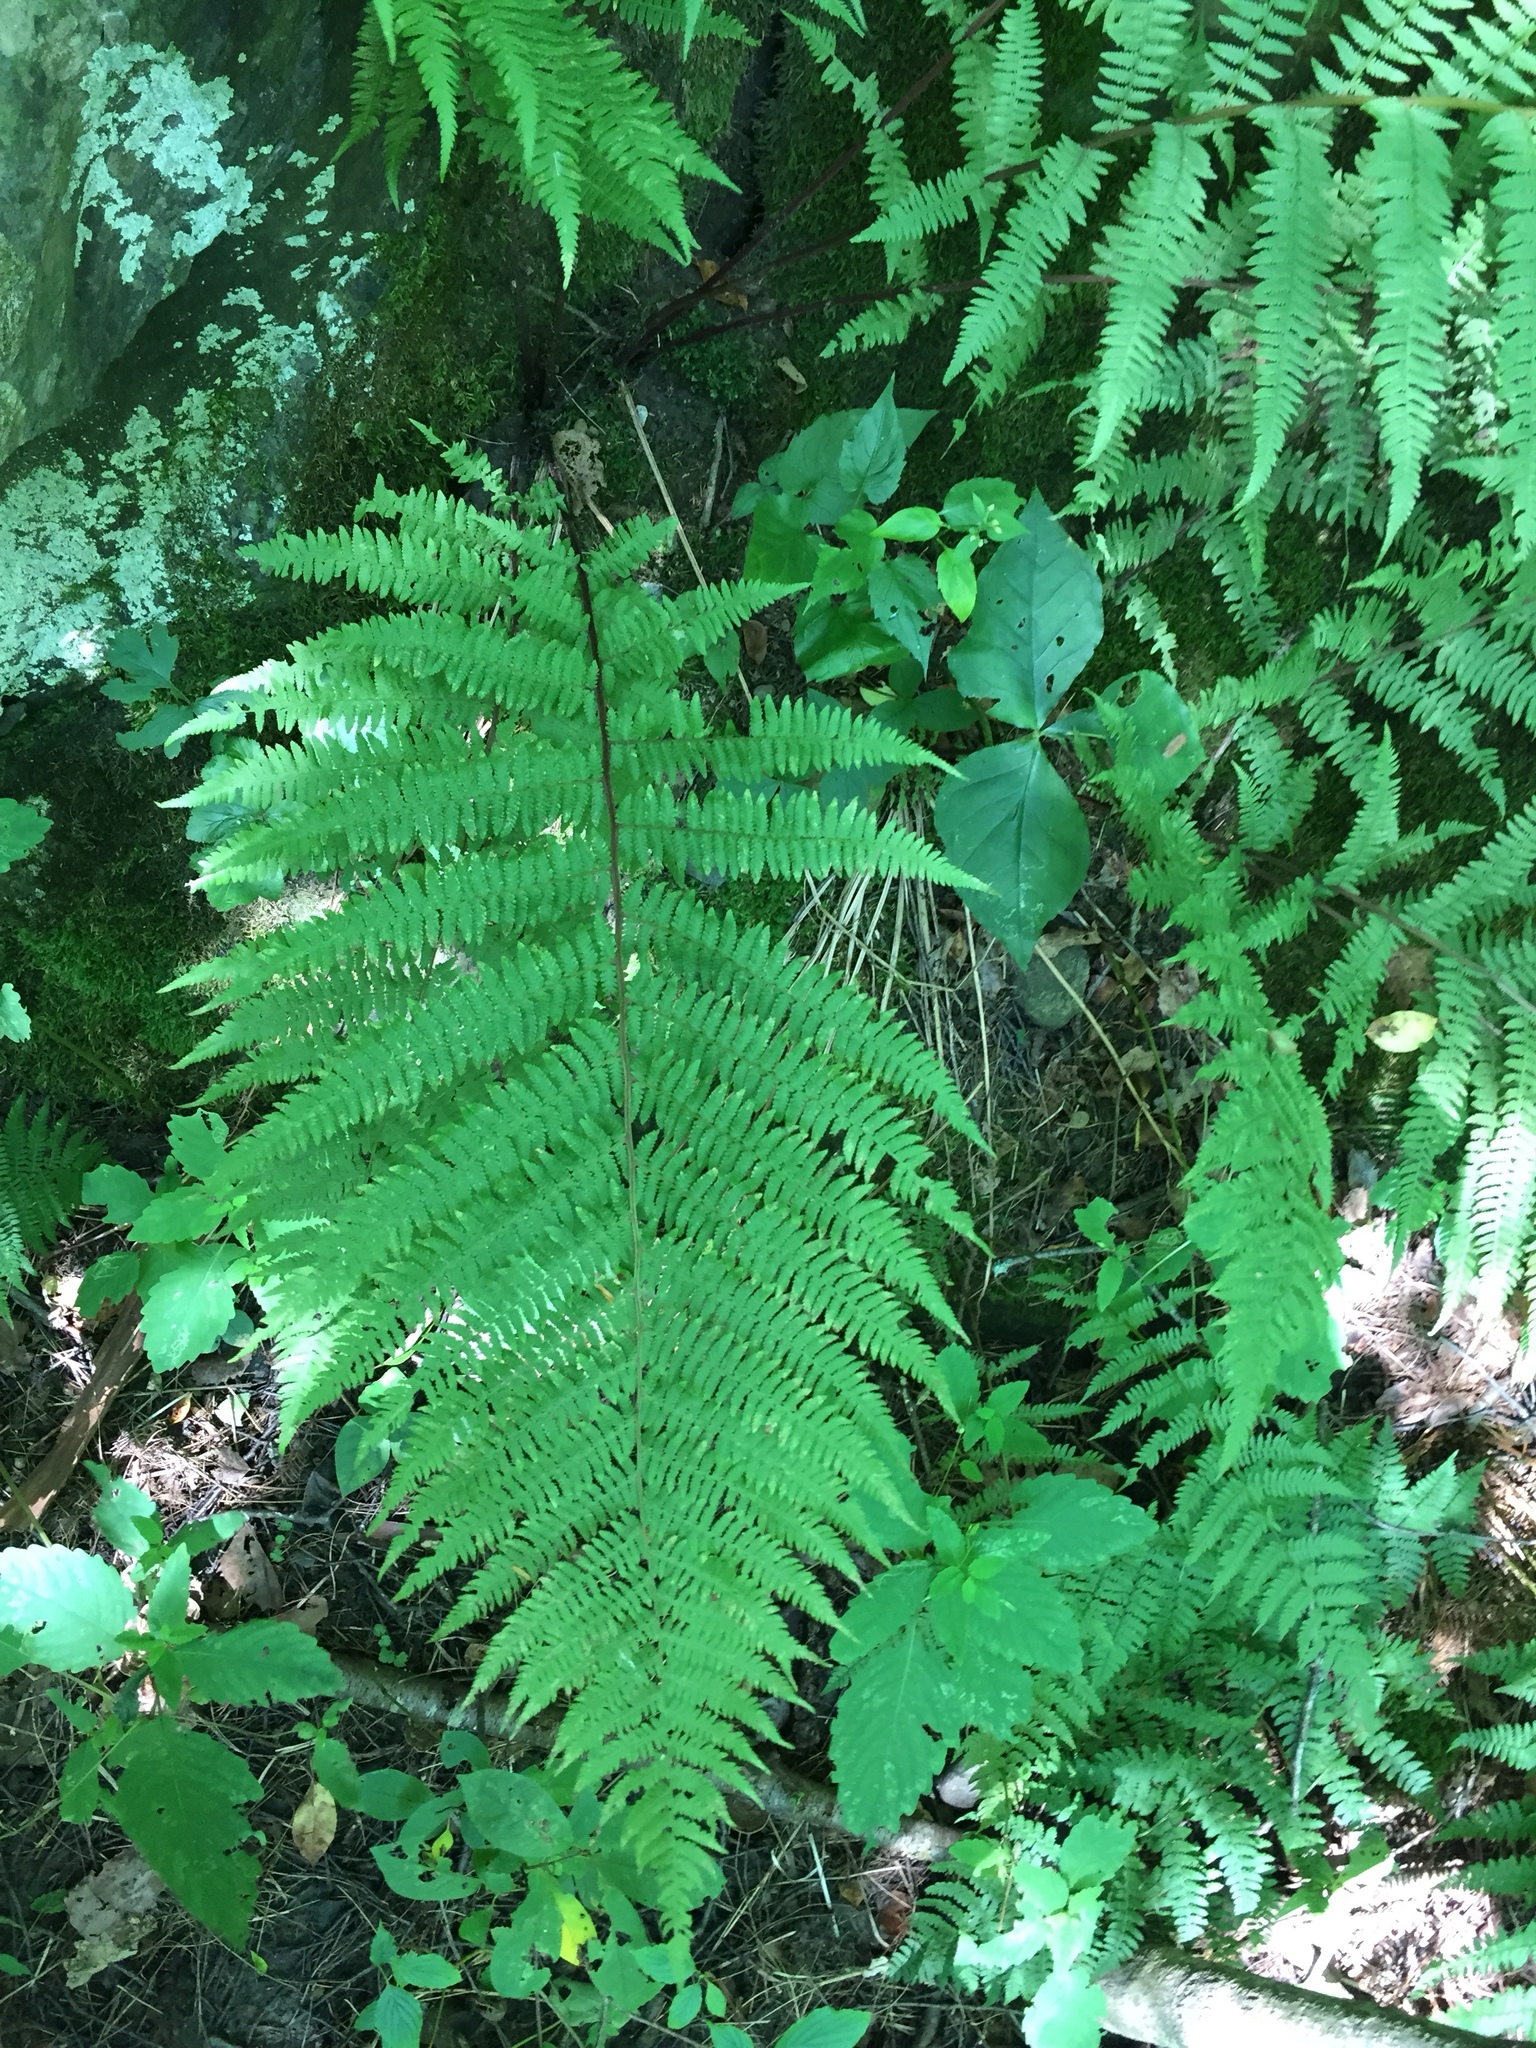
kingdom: Plantae
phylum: Tracheophyta
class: Polypodiopsida
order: Polypodiales
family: Athyriaceae
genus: Athyrium
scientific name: Athyrium angustum
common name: Northern lady fern
